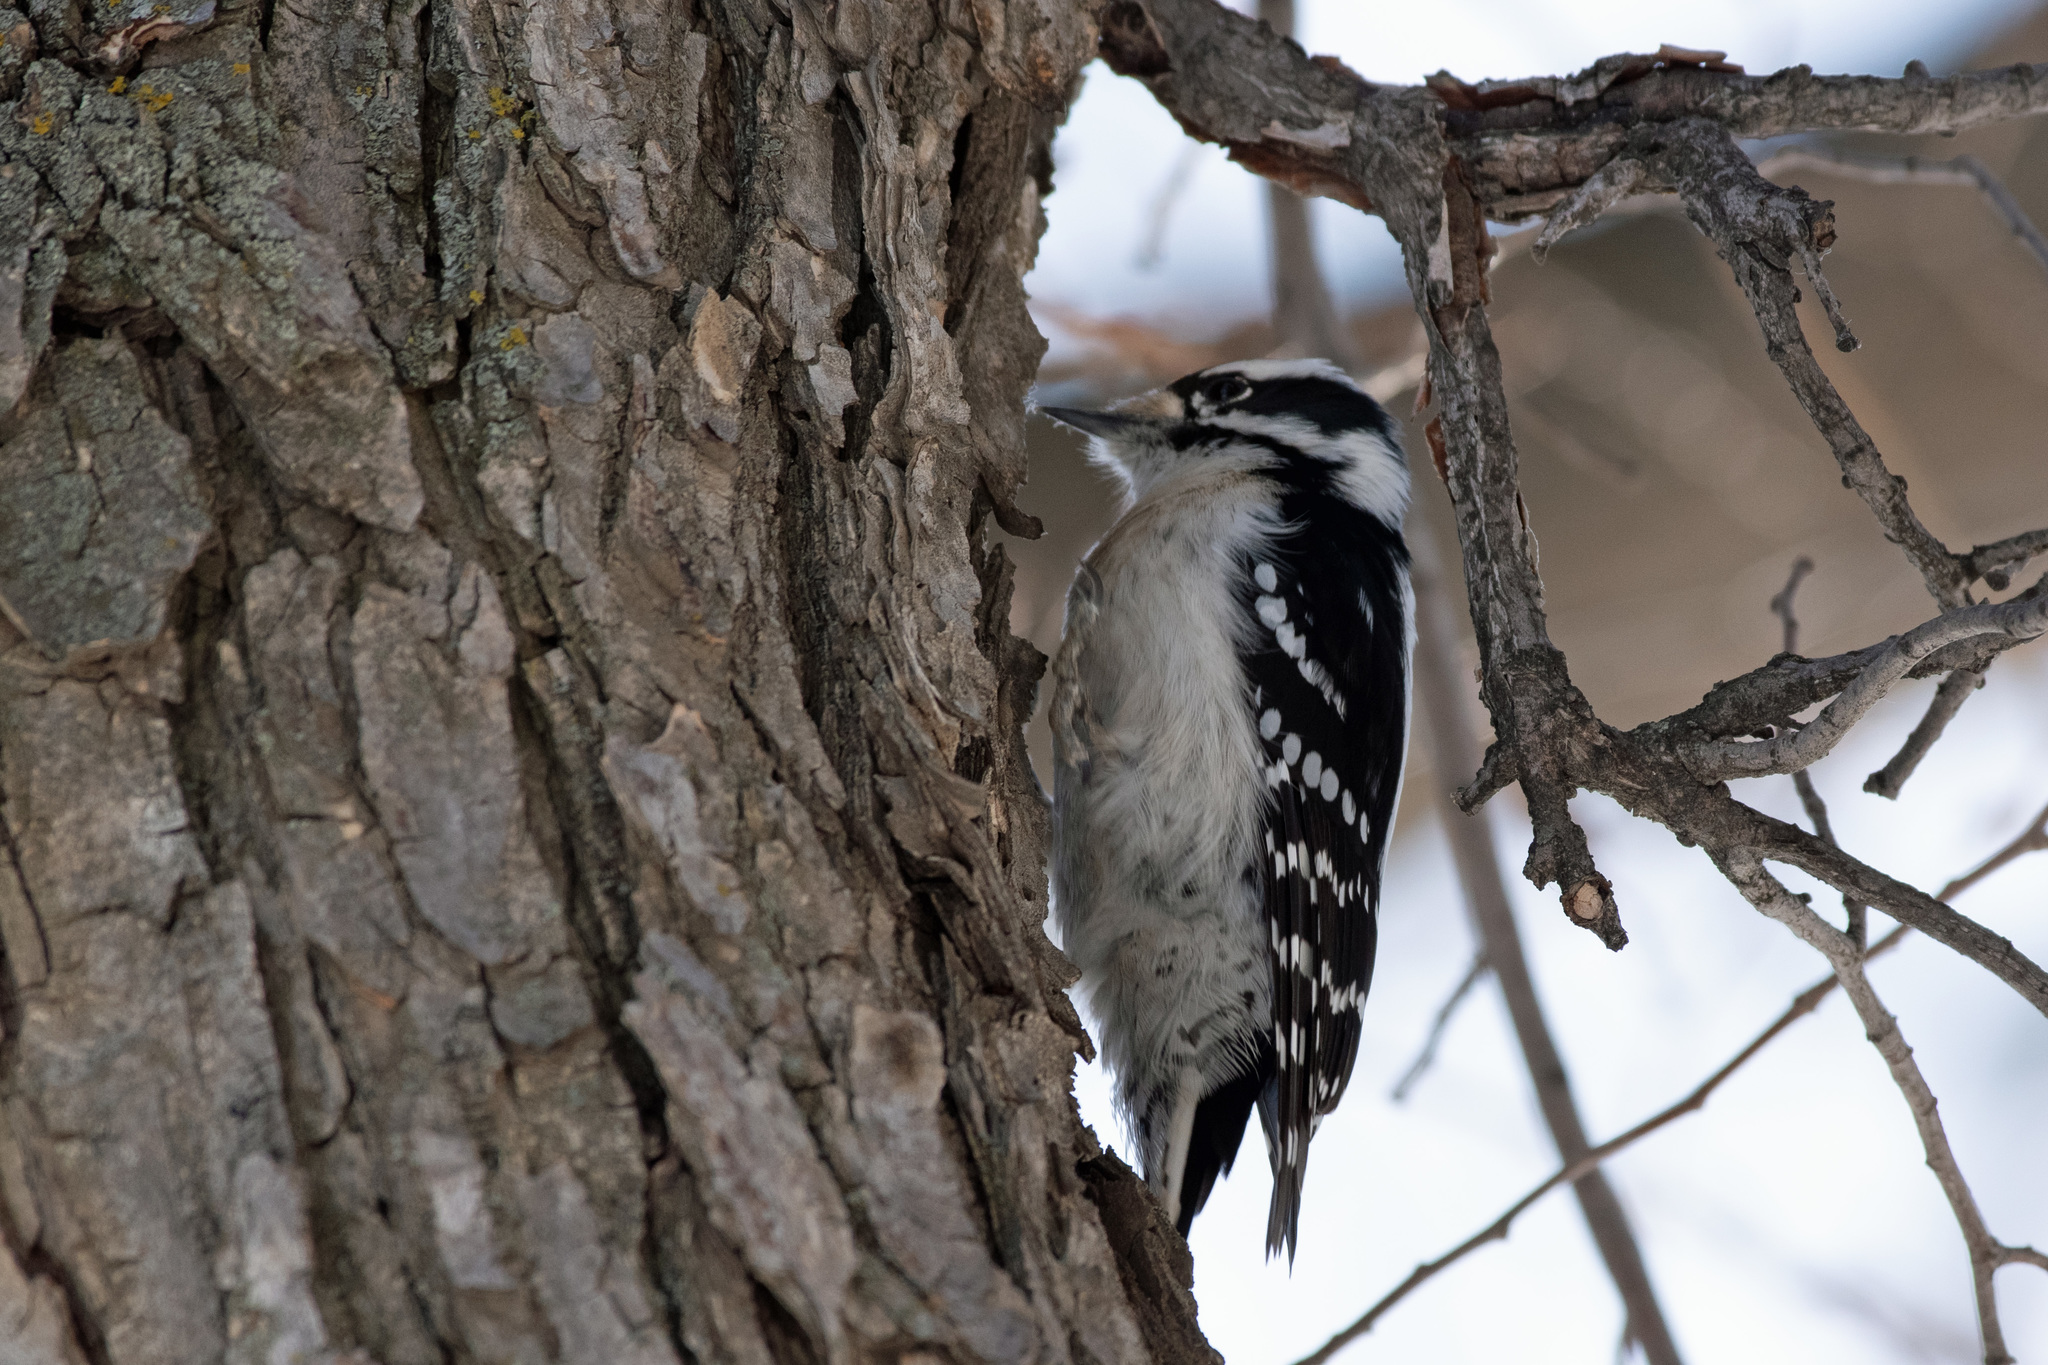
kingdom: Animalia
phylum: Chordata
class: Aves
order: Piciformes
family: Picidae
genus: Dryobates
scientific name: Dryobates pubescens
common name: Downy woodpecker
